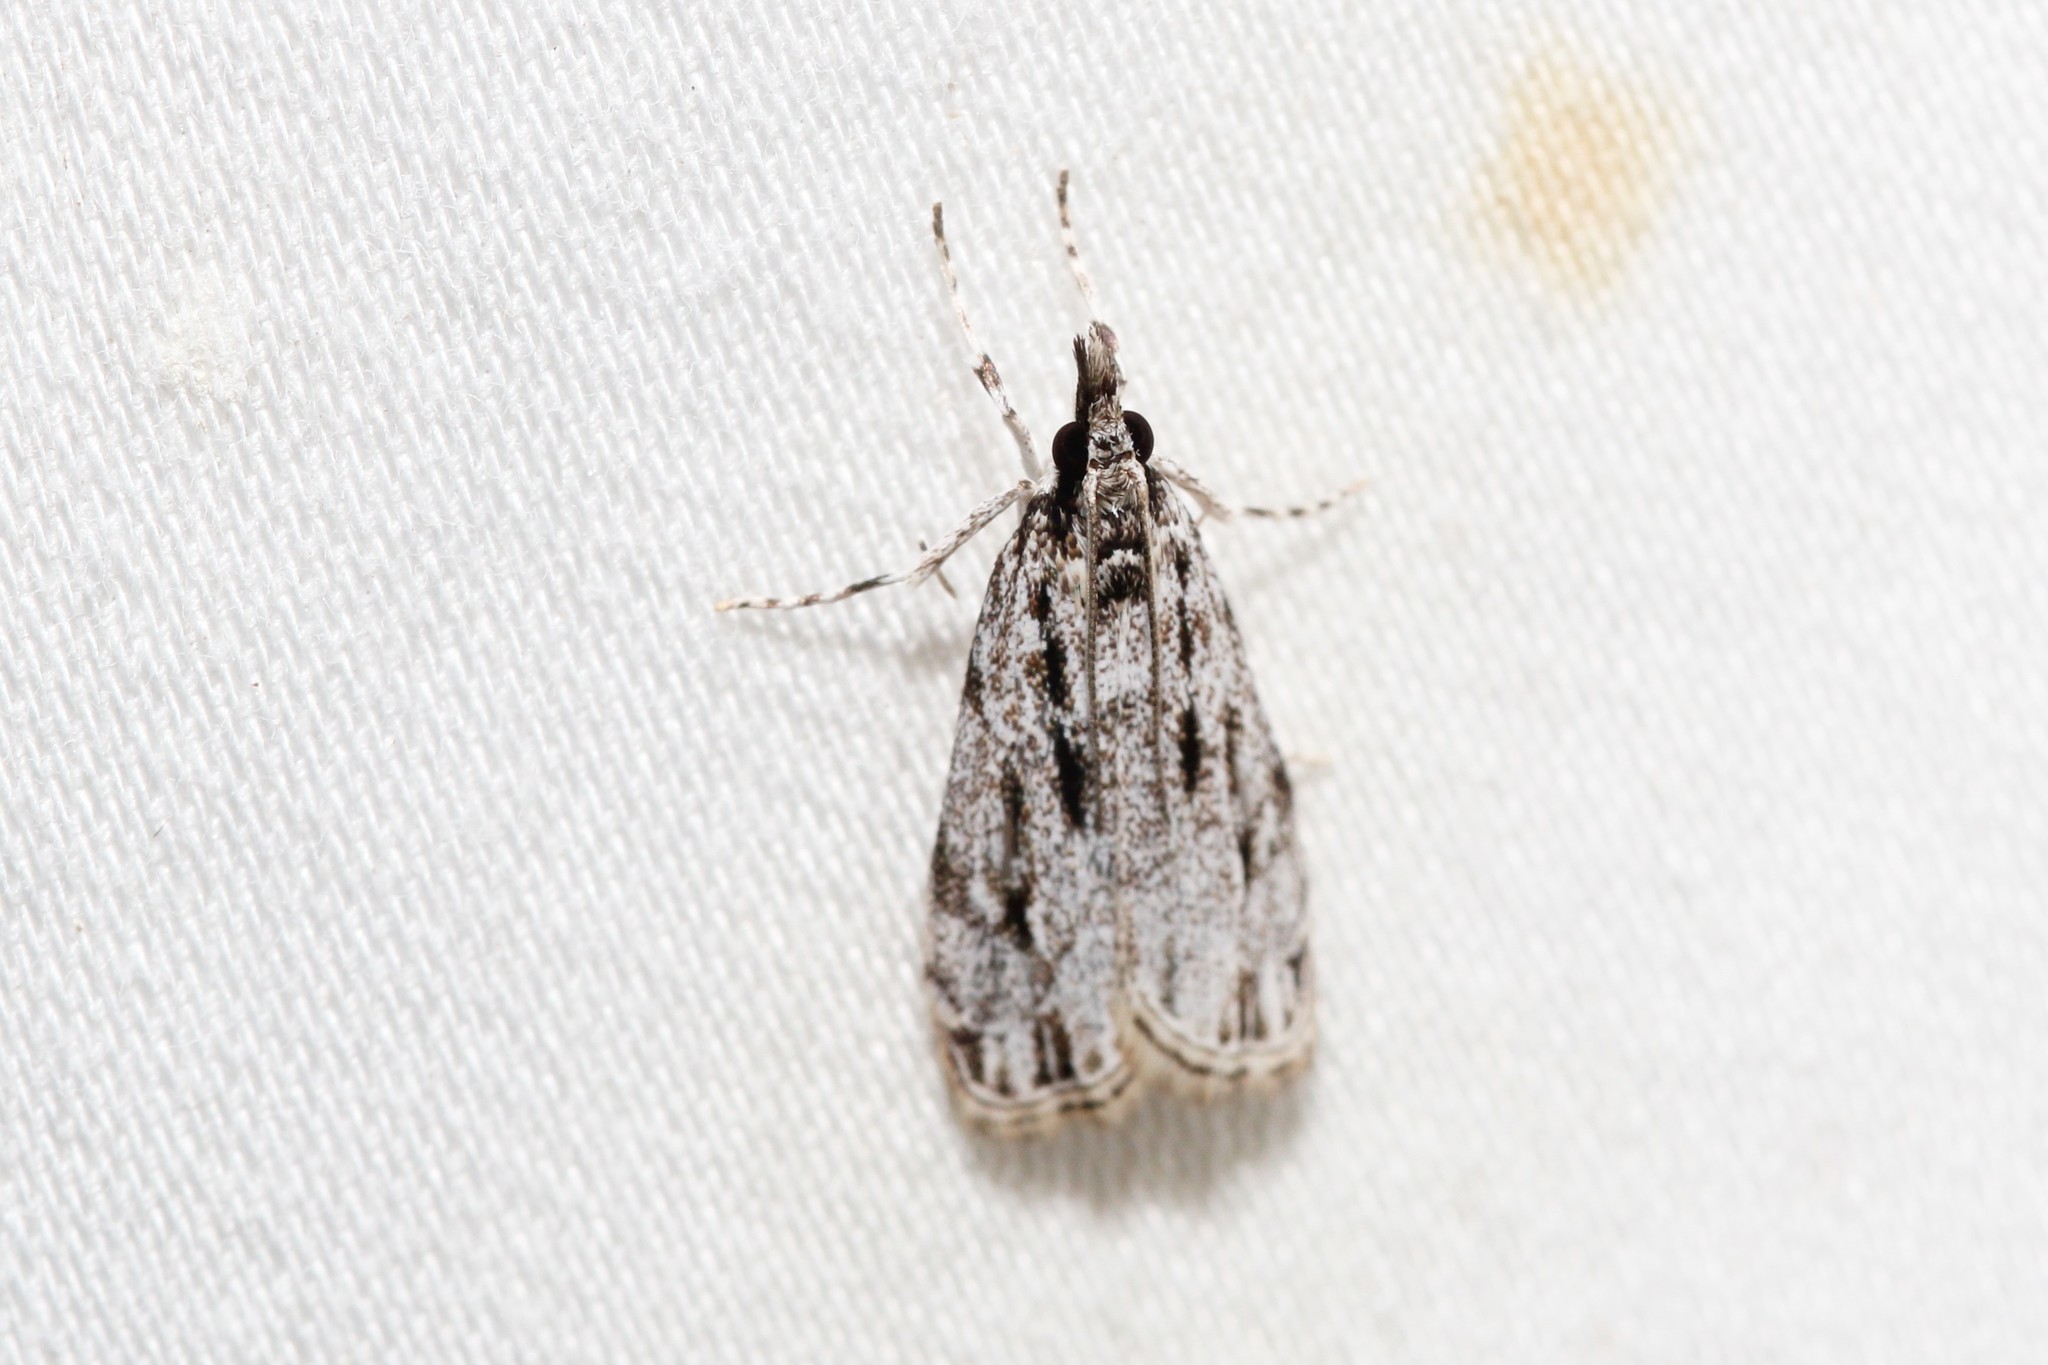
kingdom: Animalia
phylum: Arthropoda
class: Insecta
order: Lepidoptera
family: Crambidae
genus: Eudonia
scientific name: Eudonia strigalis
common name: Striped eudonia moth
